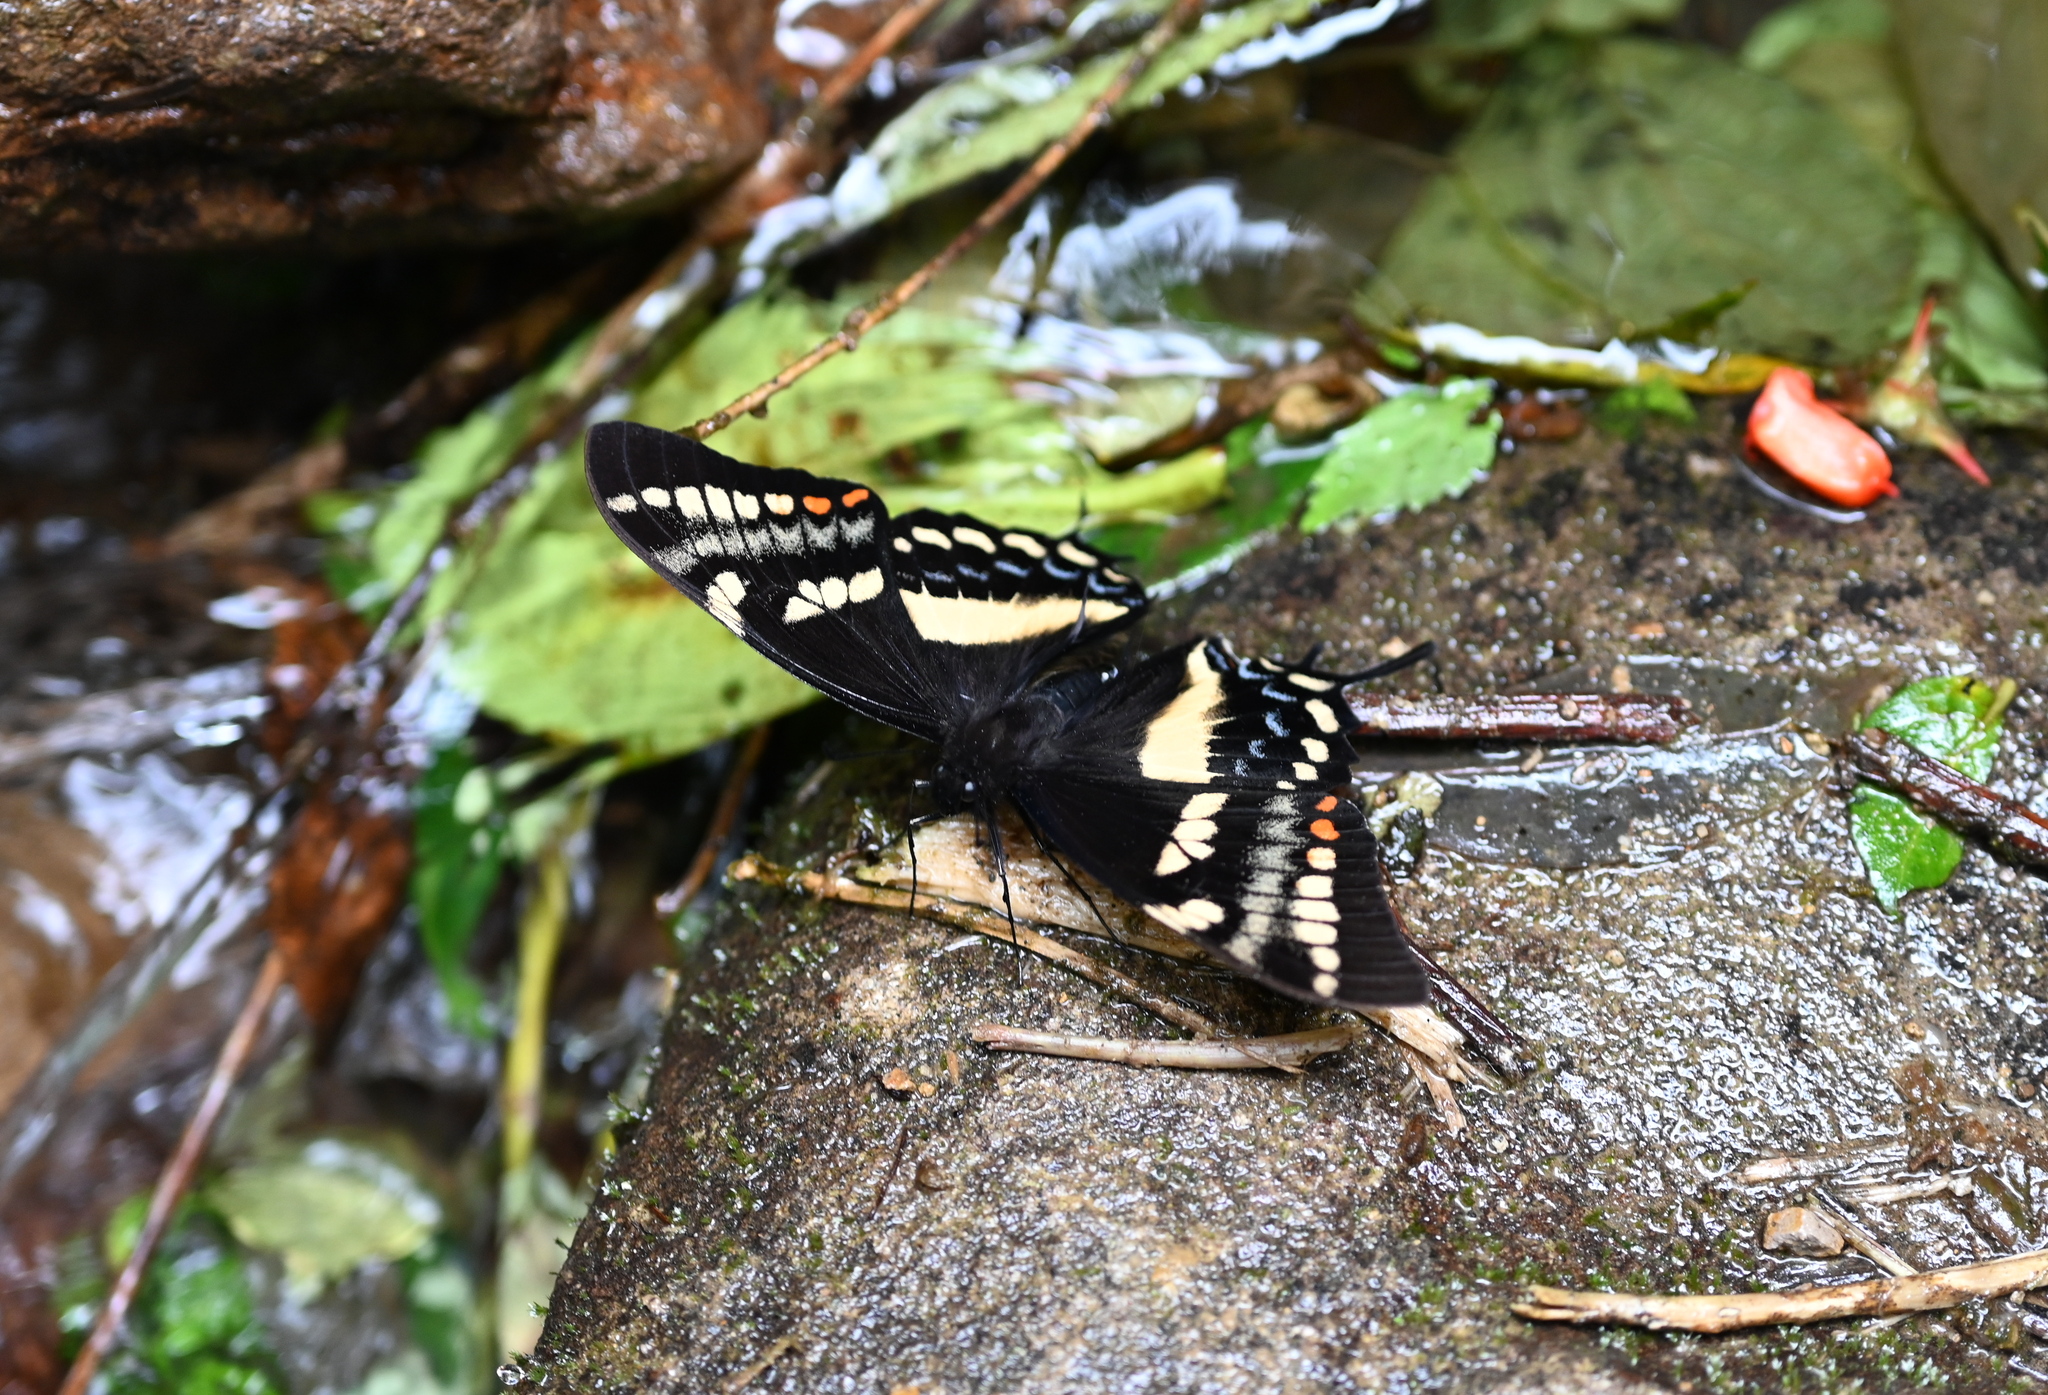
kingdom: Animalia
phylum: Arthropoda
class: Insecta
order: Lepidoptera
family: Papilionidae
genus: Papilio
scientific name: Papilio cacicus
